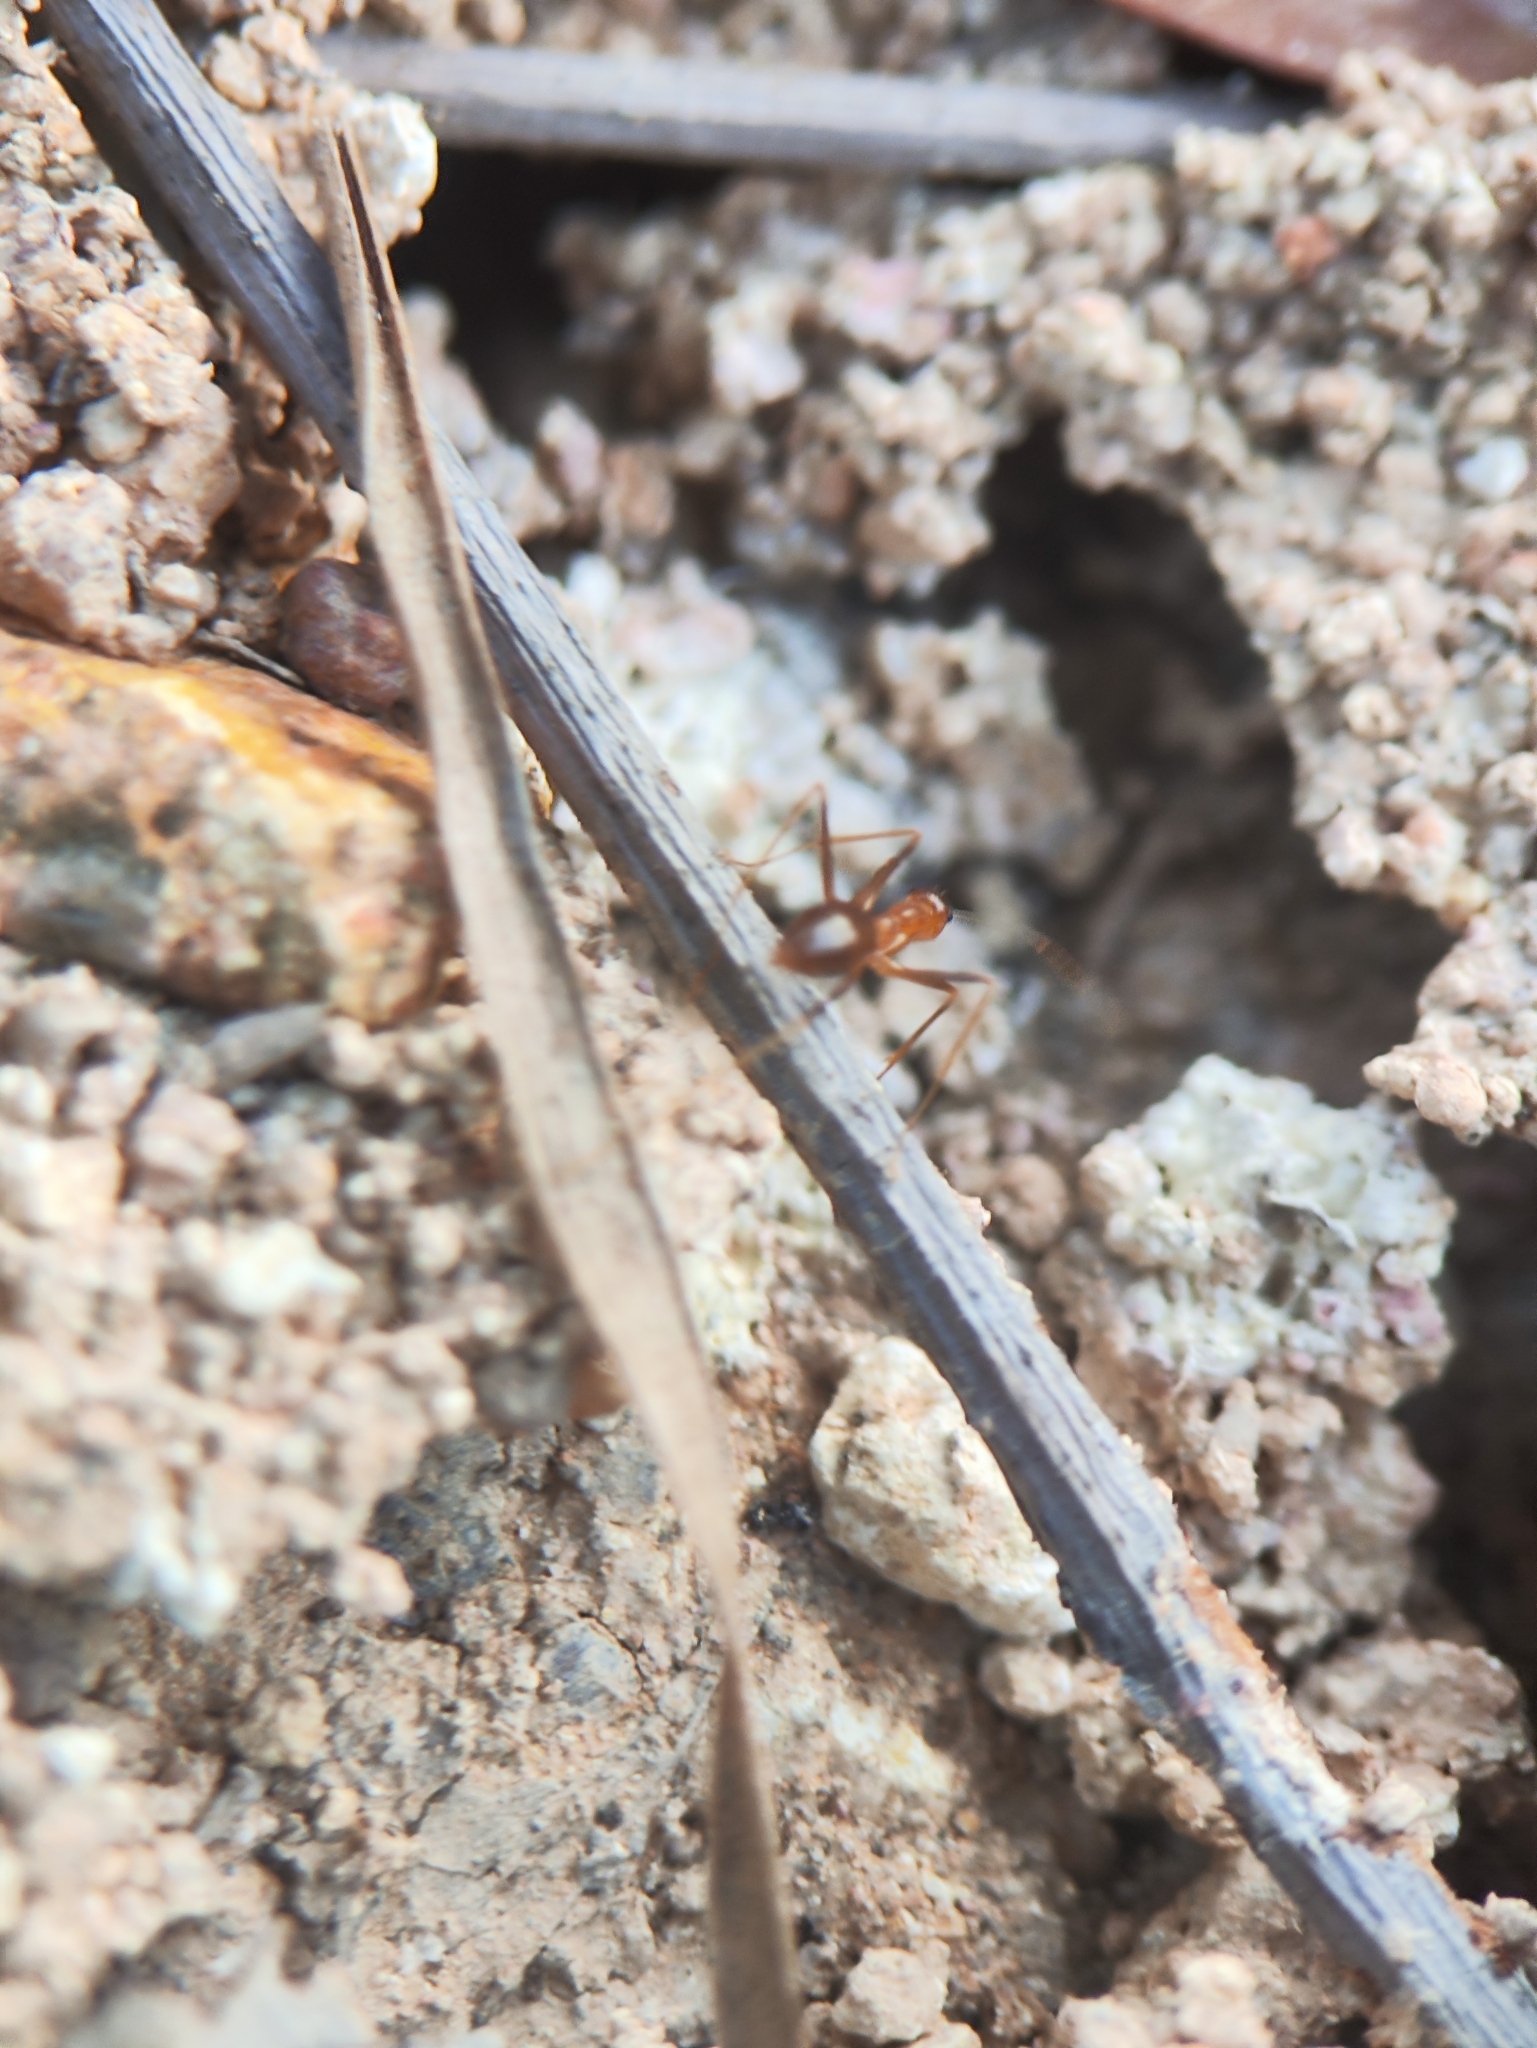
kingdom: Animalia
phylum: Arthropoda
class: Insecta
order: Hymenoptera
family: Formicidae
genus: Anoplolepis
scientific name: Anoplolepis gracilipes
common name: Ant
